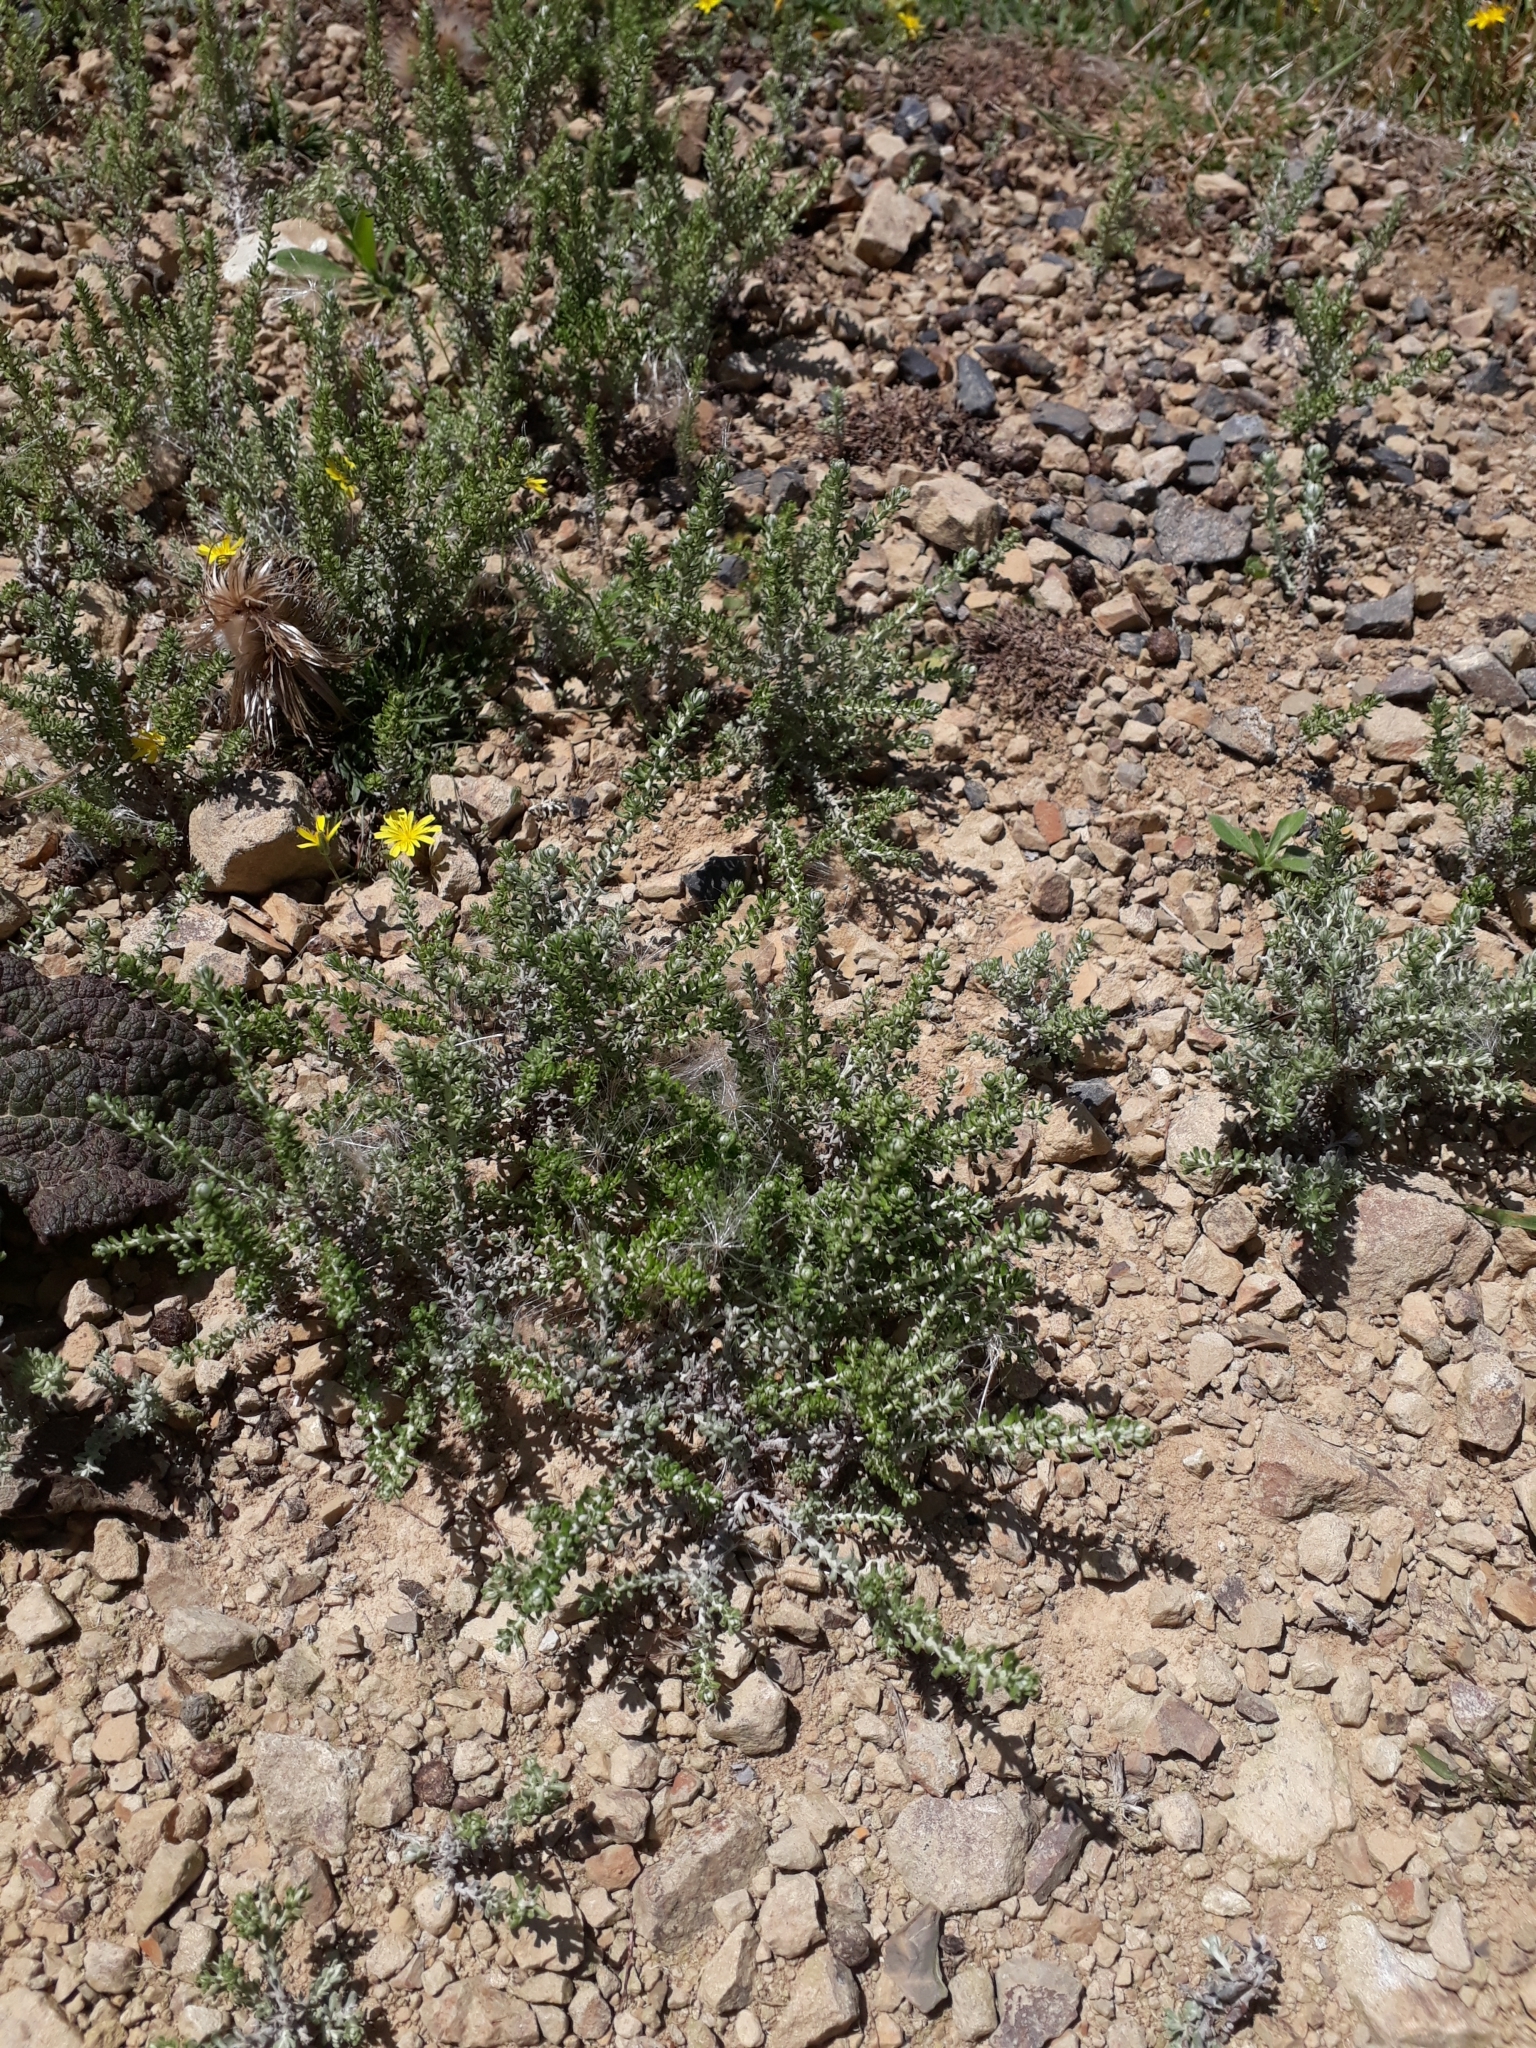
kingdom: Plantae
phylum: Tracheophyta
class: Magnoliopsida
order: Asterales
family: Asteraceae
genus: Ozothamnus
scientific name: Ozothamnus leptophyllus
